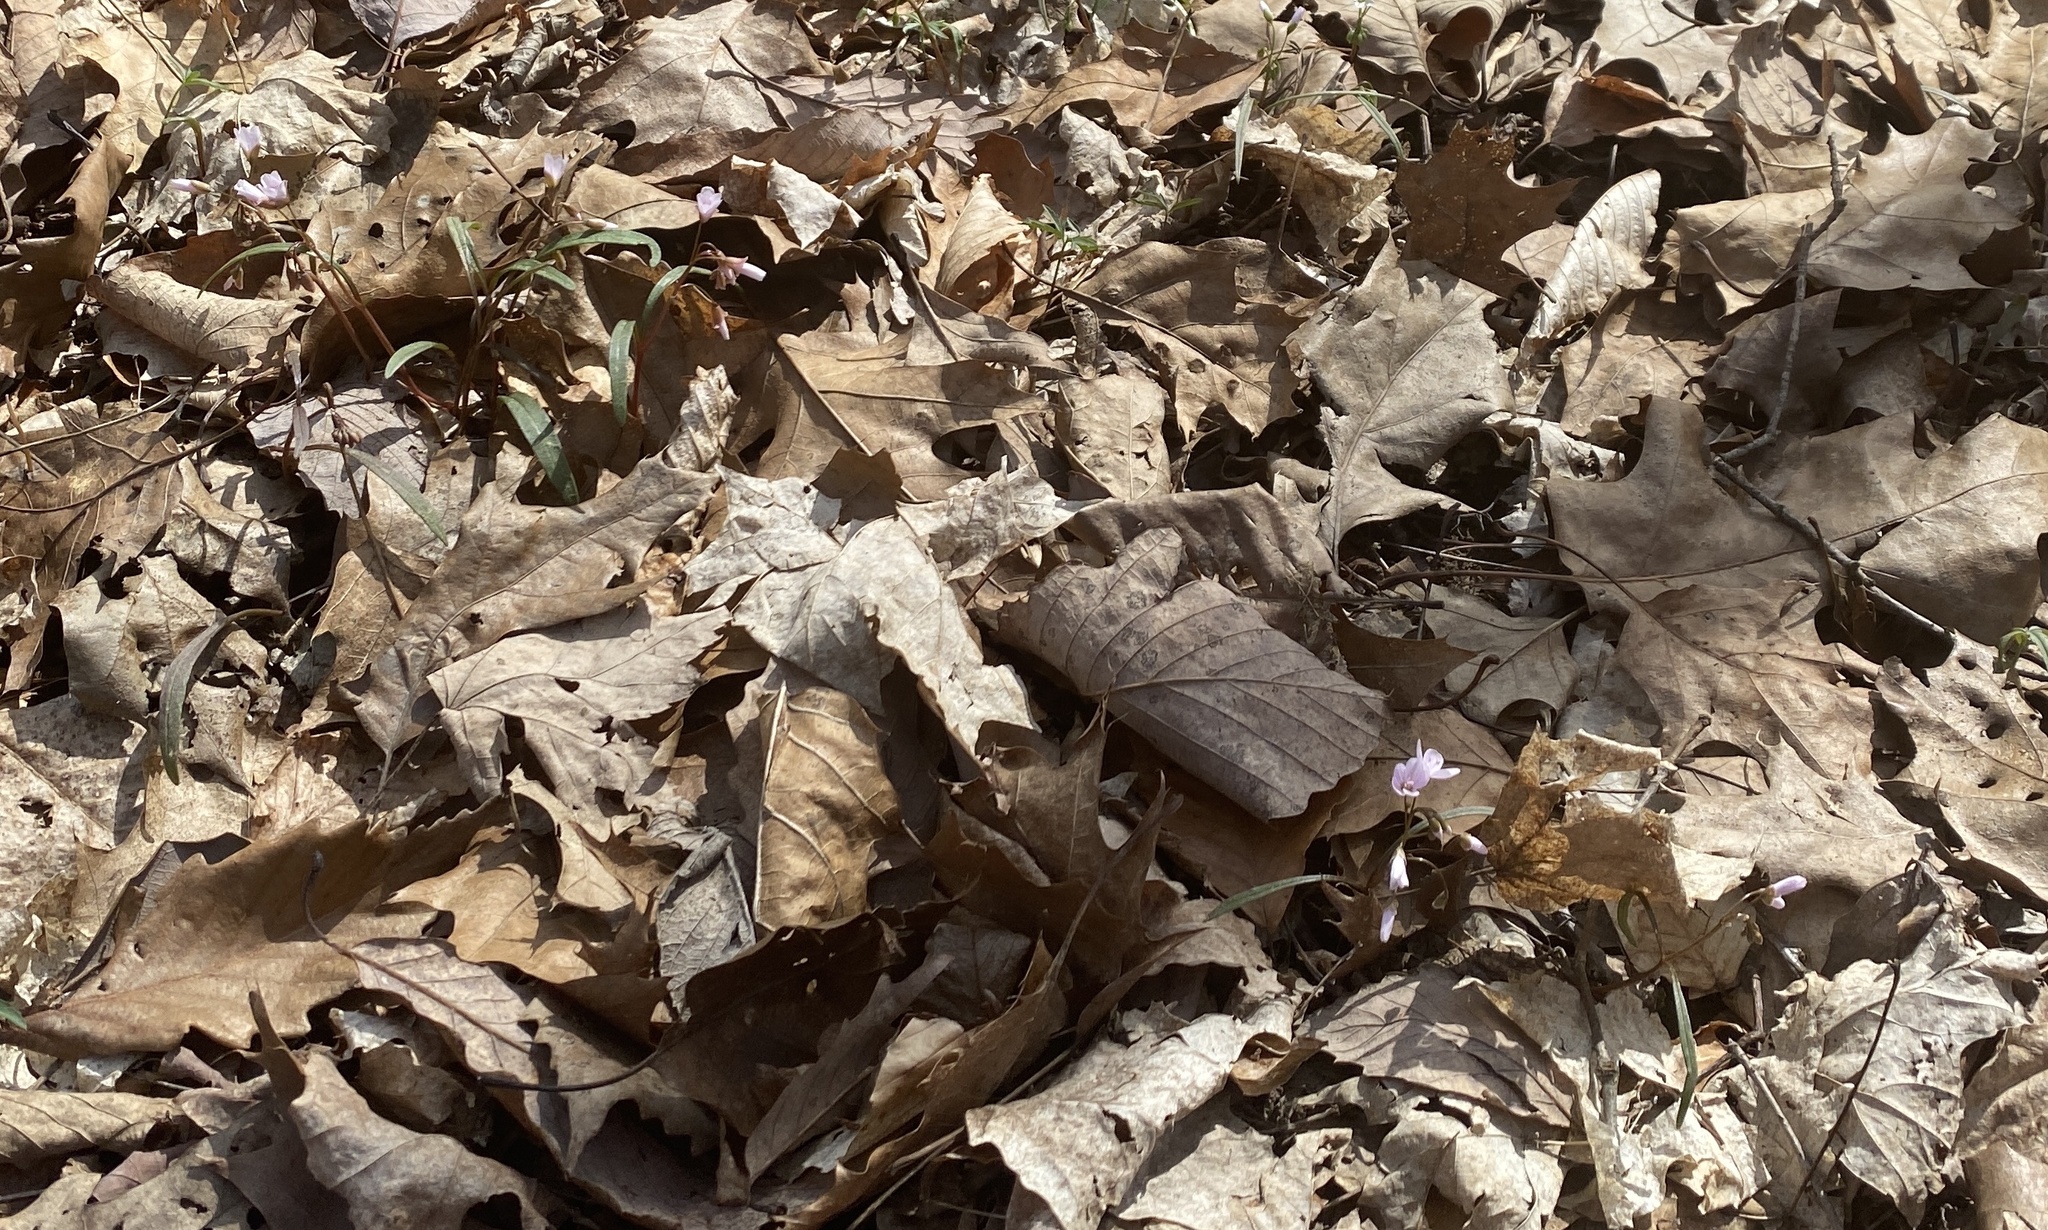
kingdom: Plantae
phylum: Tracheophyta
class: Magnoliopsida
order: Caryophyllales
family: Montiaceae
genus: Claytonia
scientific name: Claytonia virginica
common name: Virginia springbeauty
